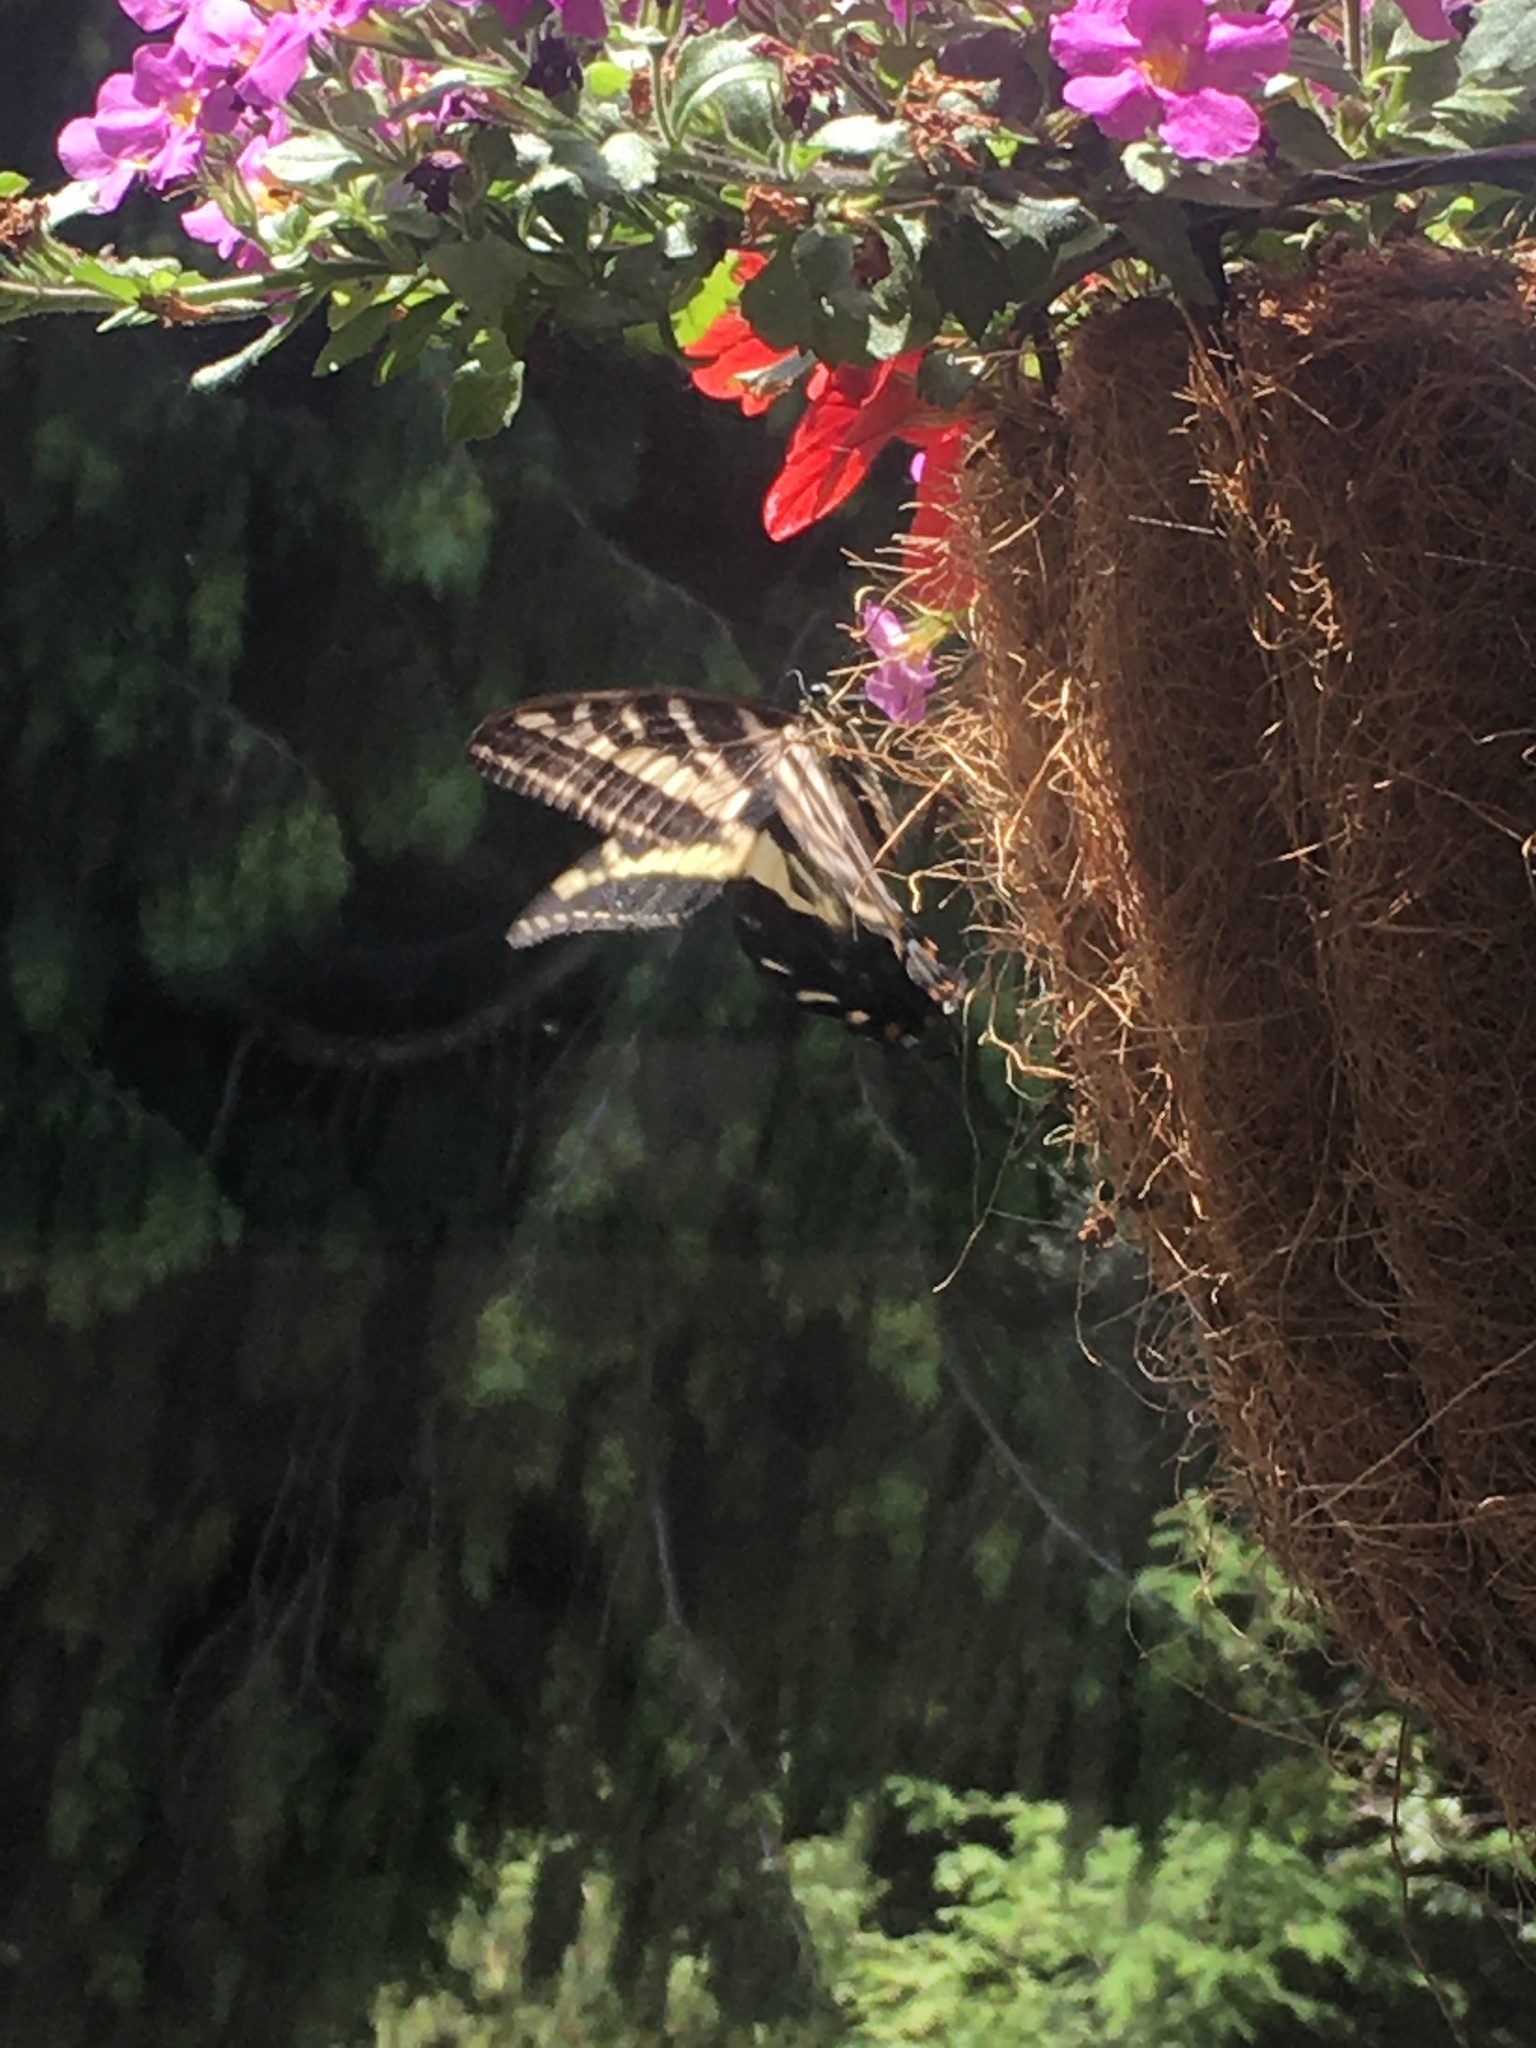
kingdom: Animalia
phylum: Arthropoda
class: Insecta
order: Lepidoptera
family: Papilionidae
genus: Papilio
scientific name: Papilio eurymedon
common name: Pale tiger swallowtail
